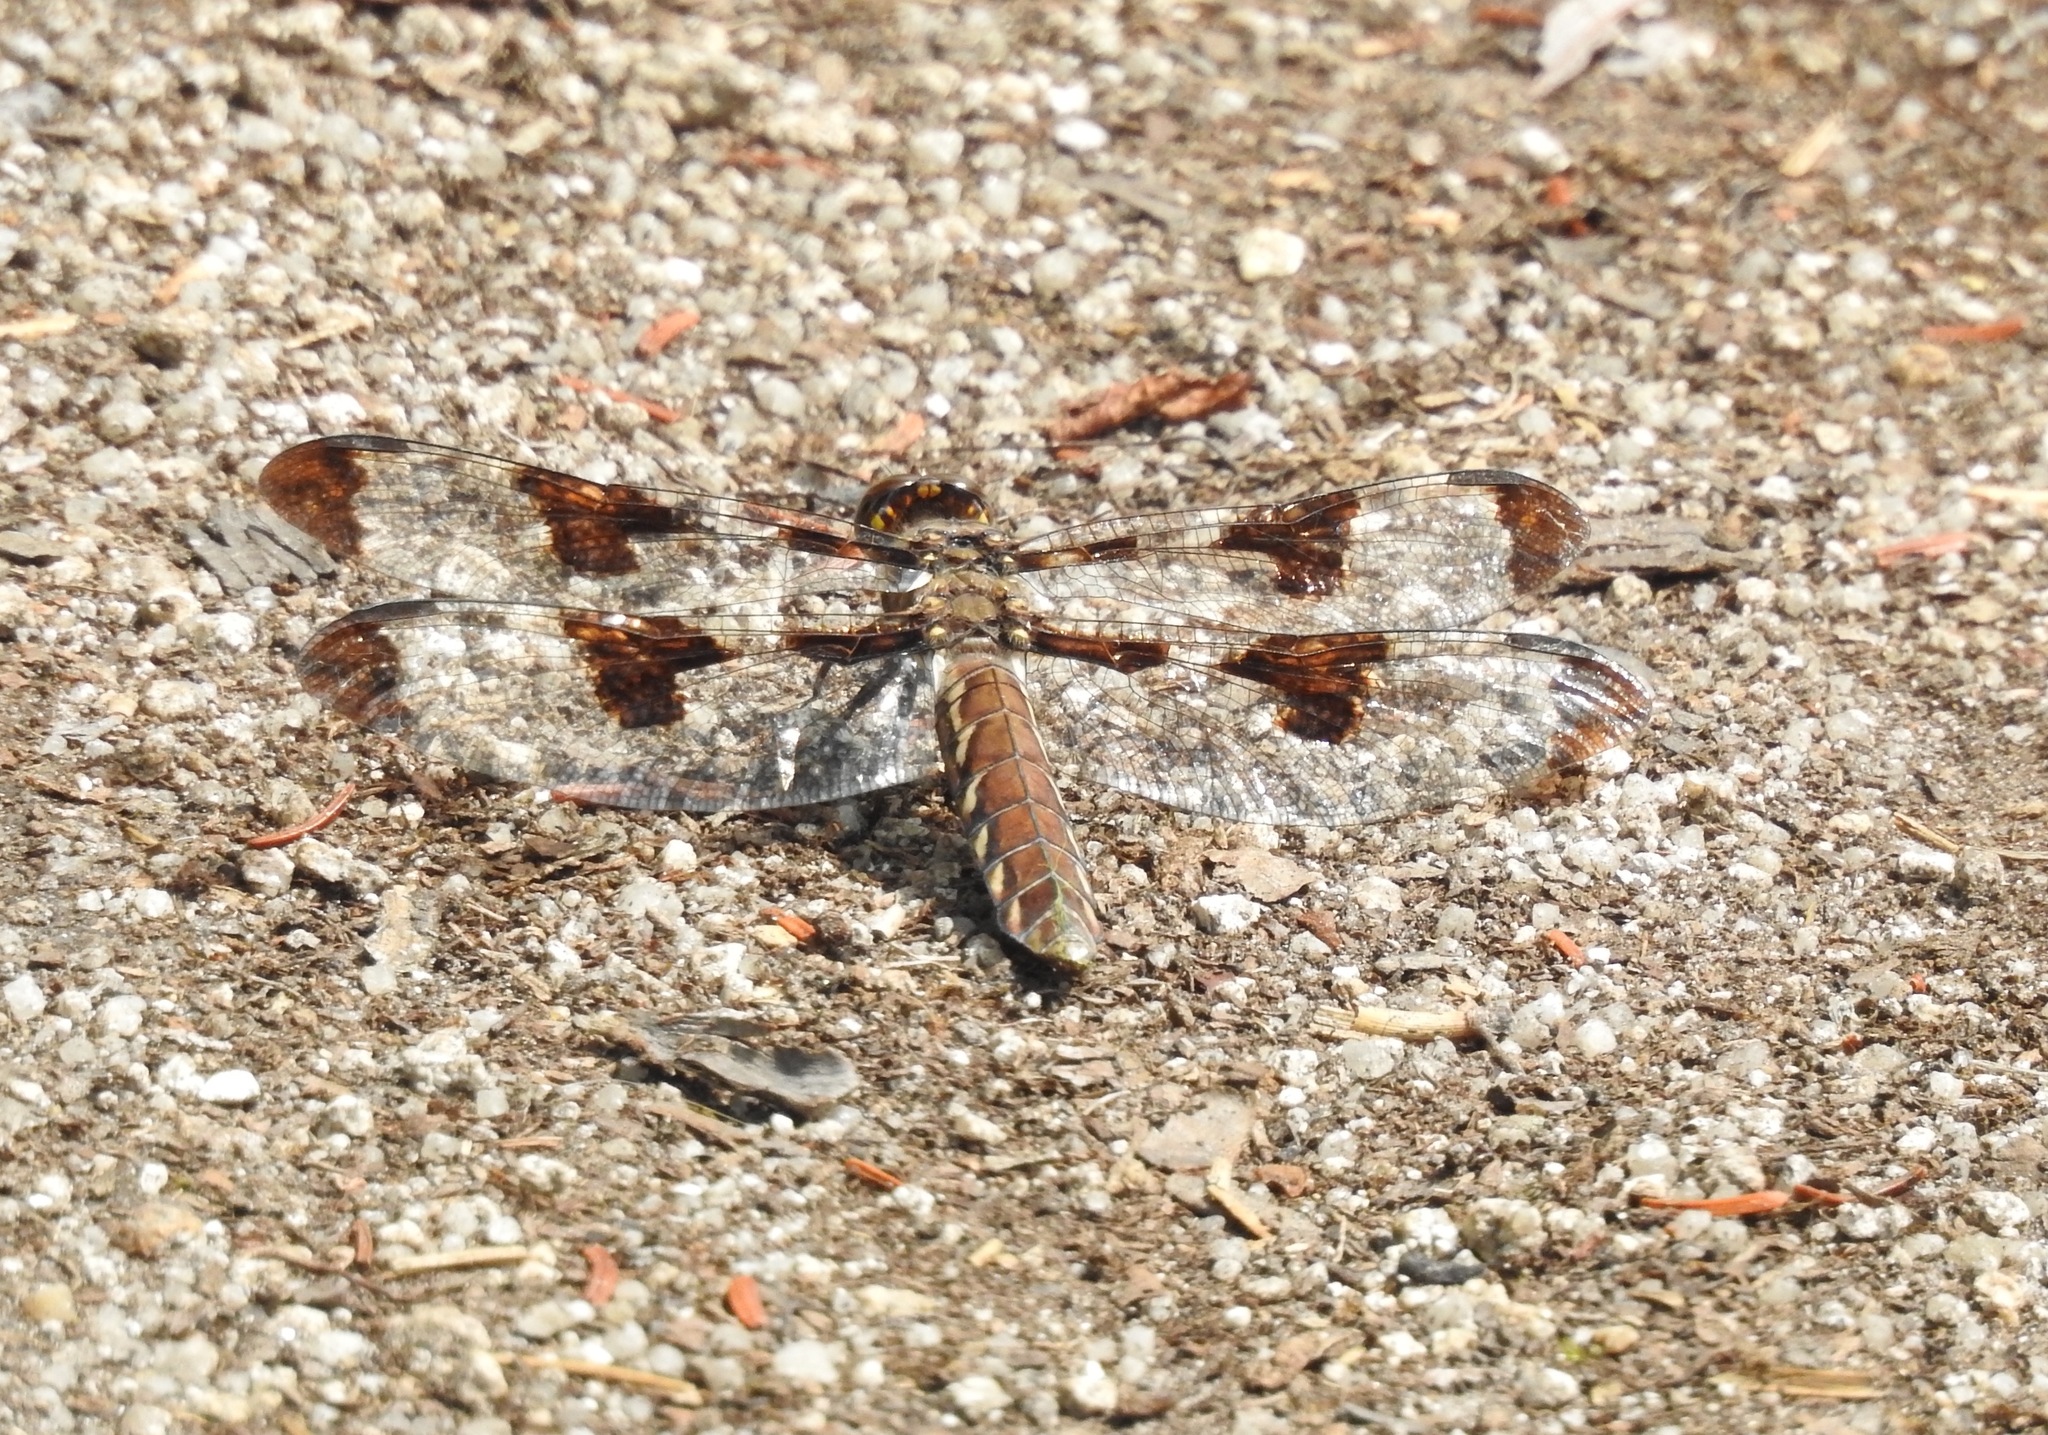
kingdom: Animalia
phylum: Arthropoda
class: Insecta
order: Odonata
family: Libellulidae
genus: Plathemis
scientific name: Plathemis lydia
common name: Common whitetail
